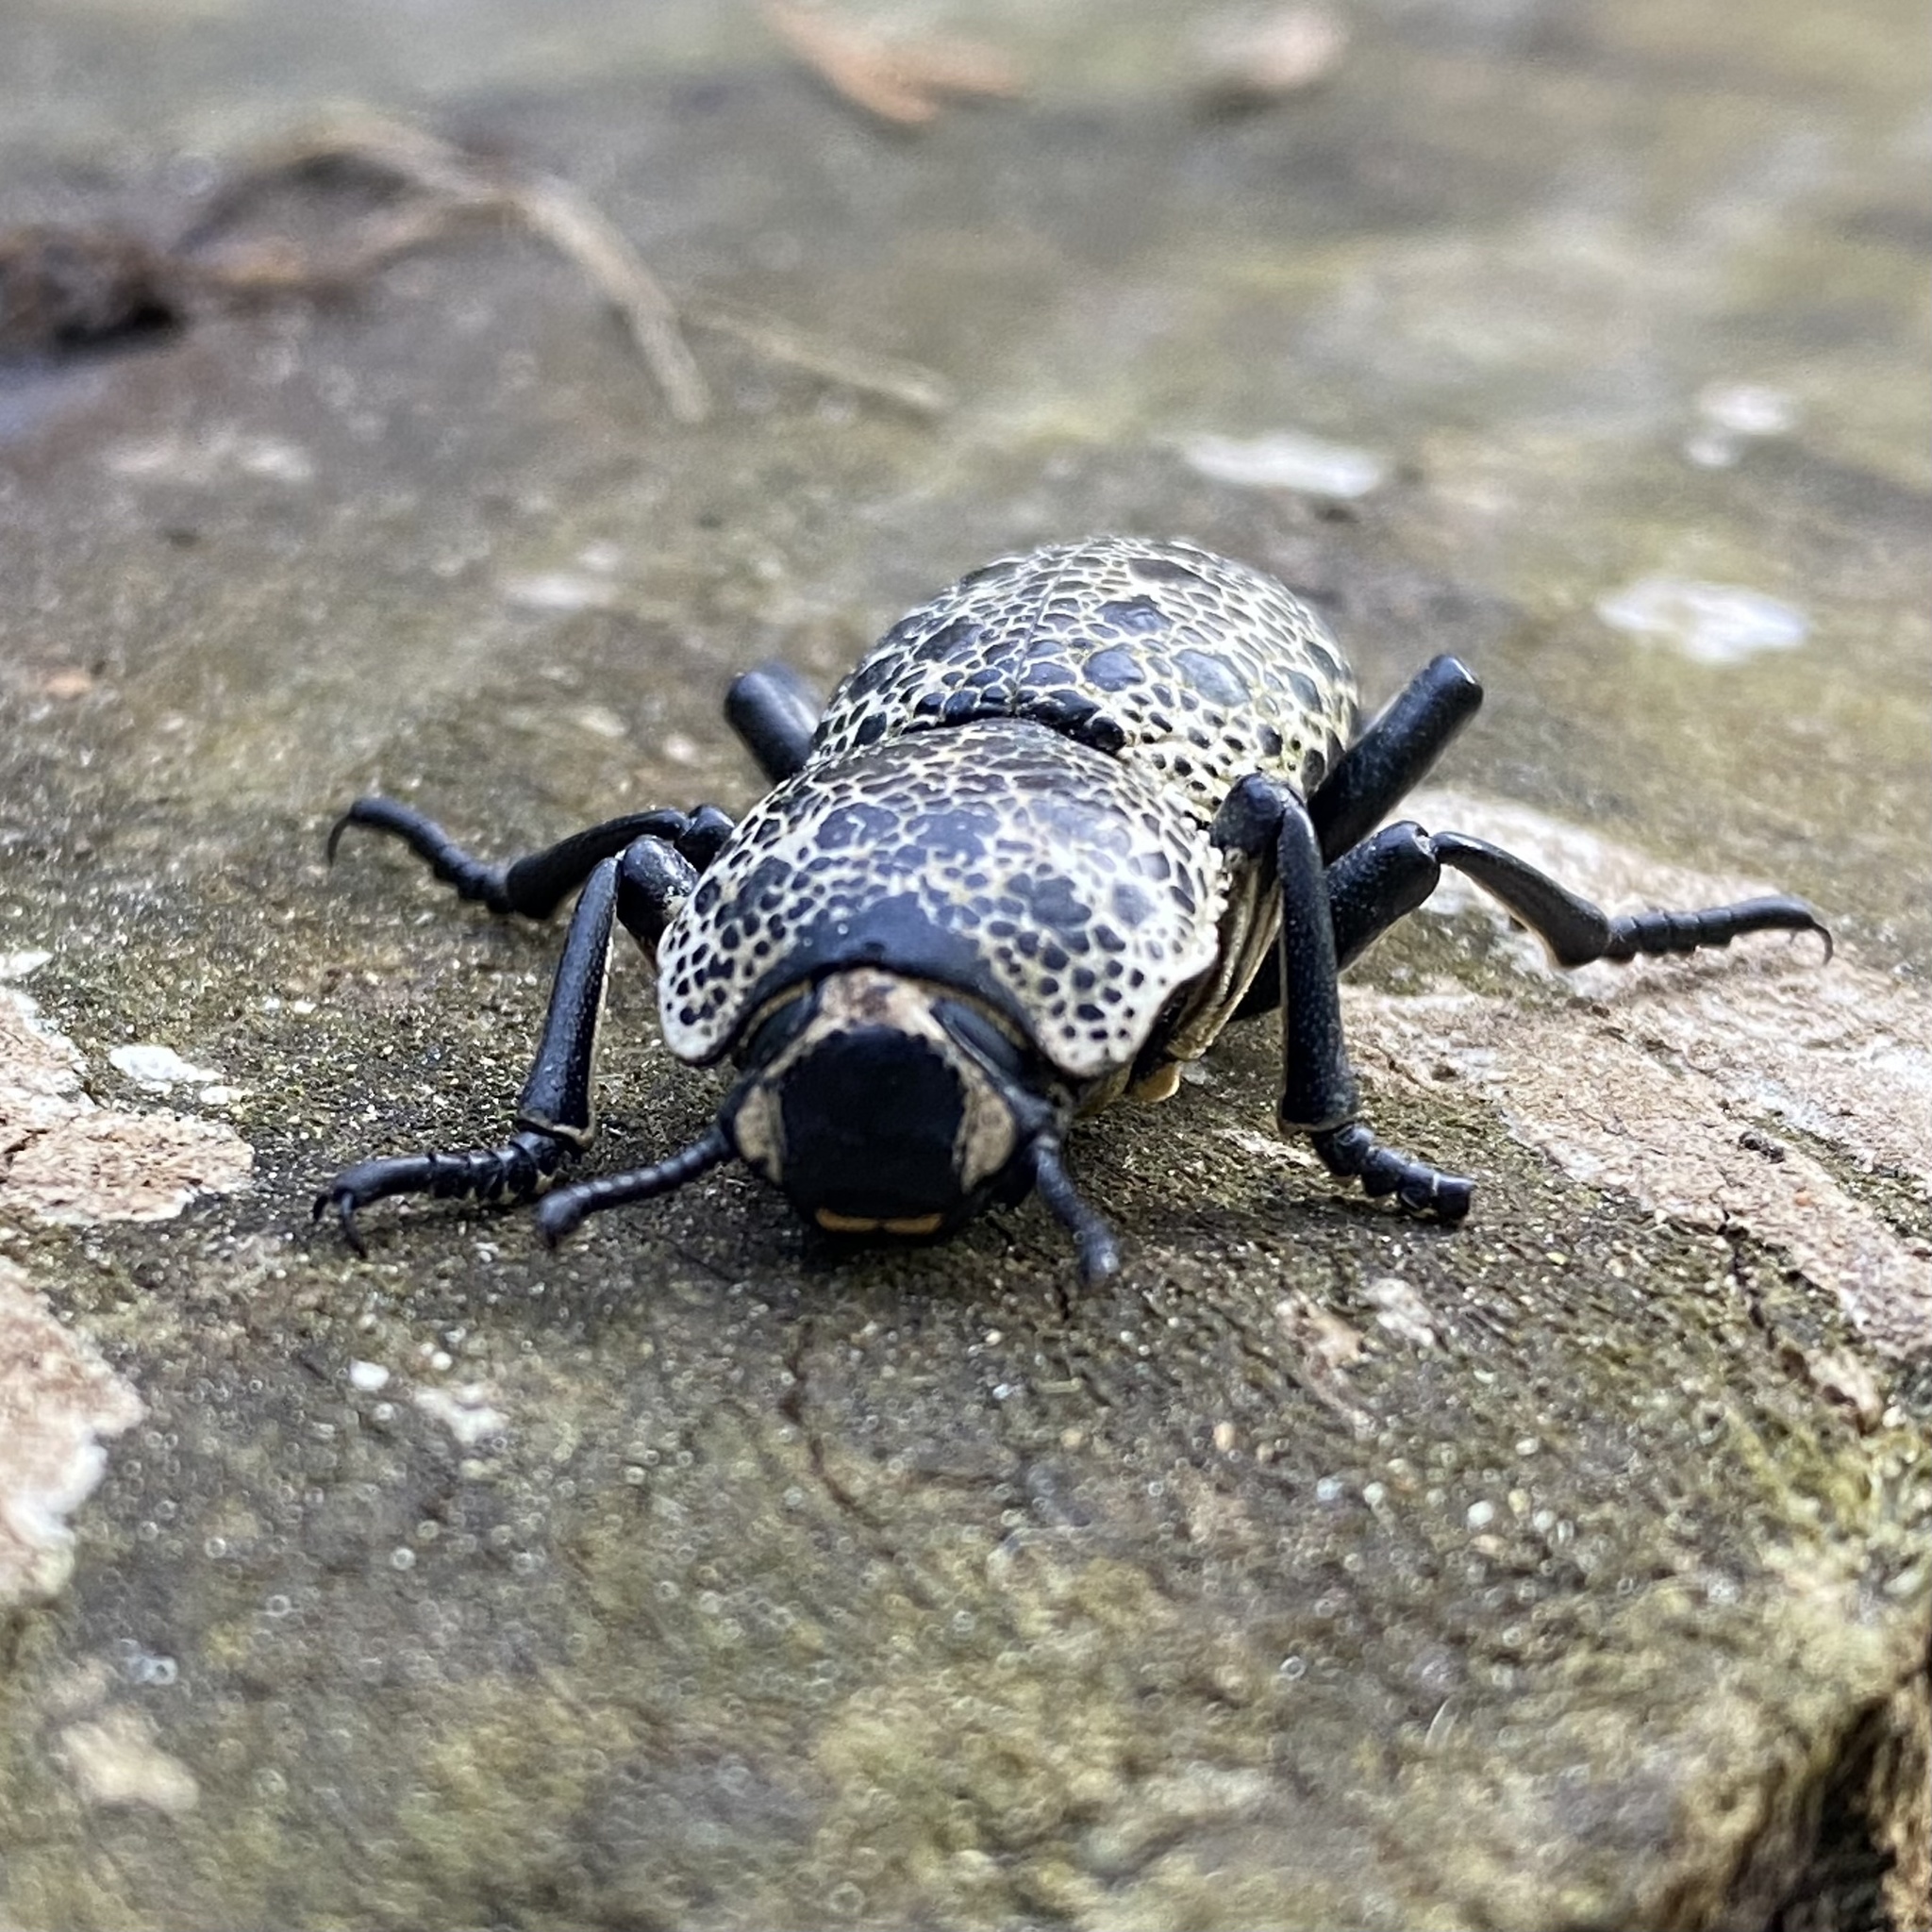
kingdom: Animalia
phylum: Arthropoda
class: Insecta
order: Coleoptera
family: Zopheridae
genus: Zopherus
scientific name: Zopherus
